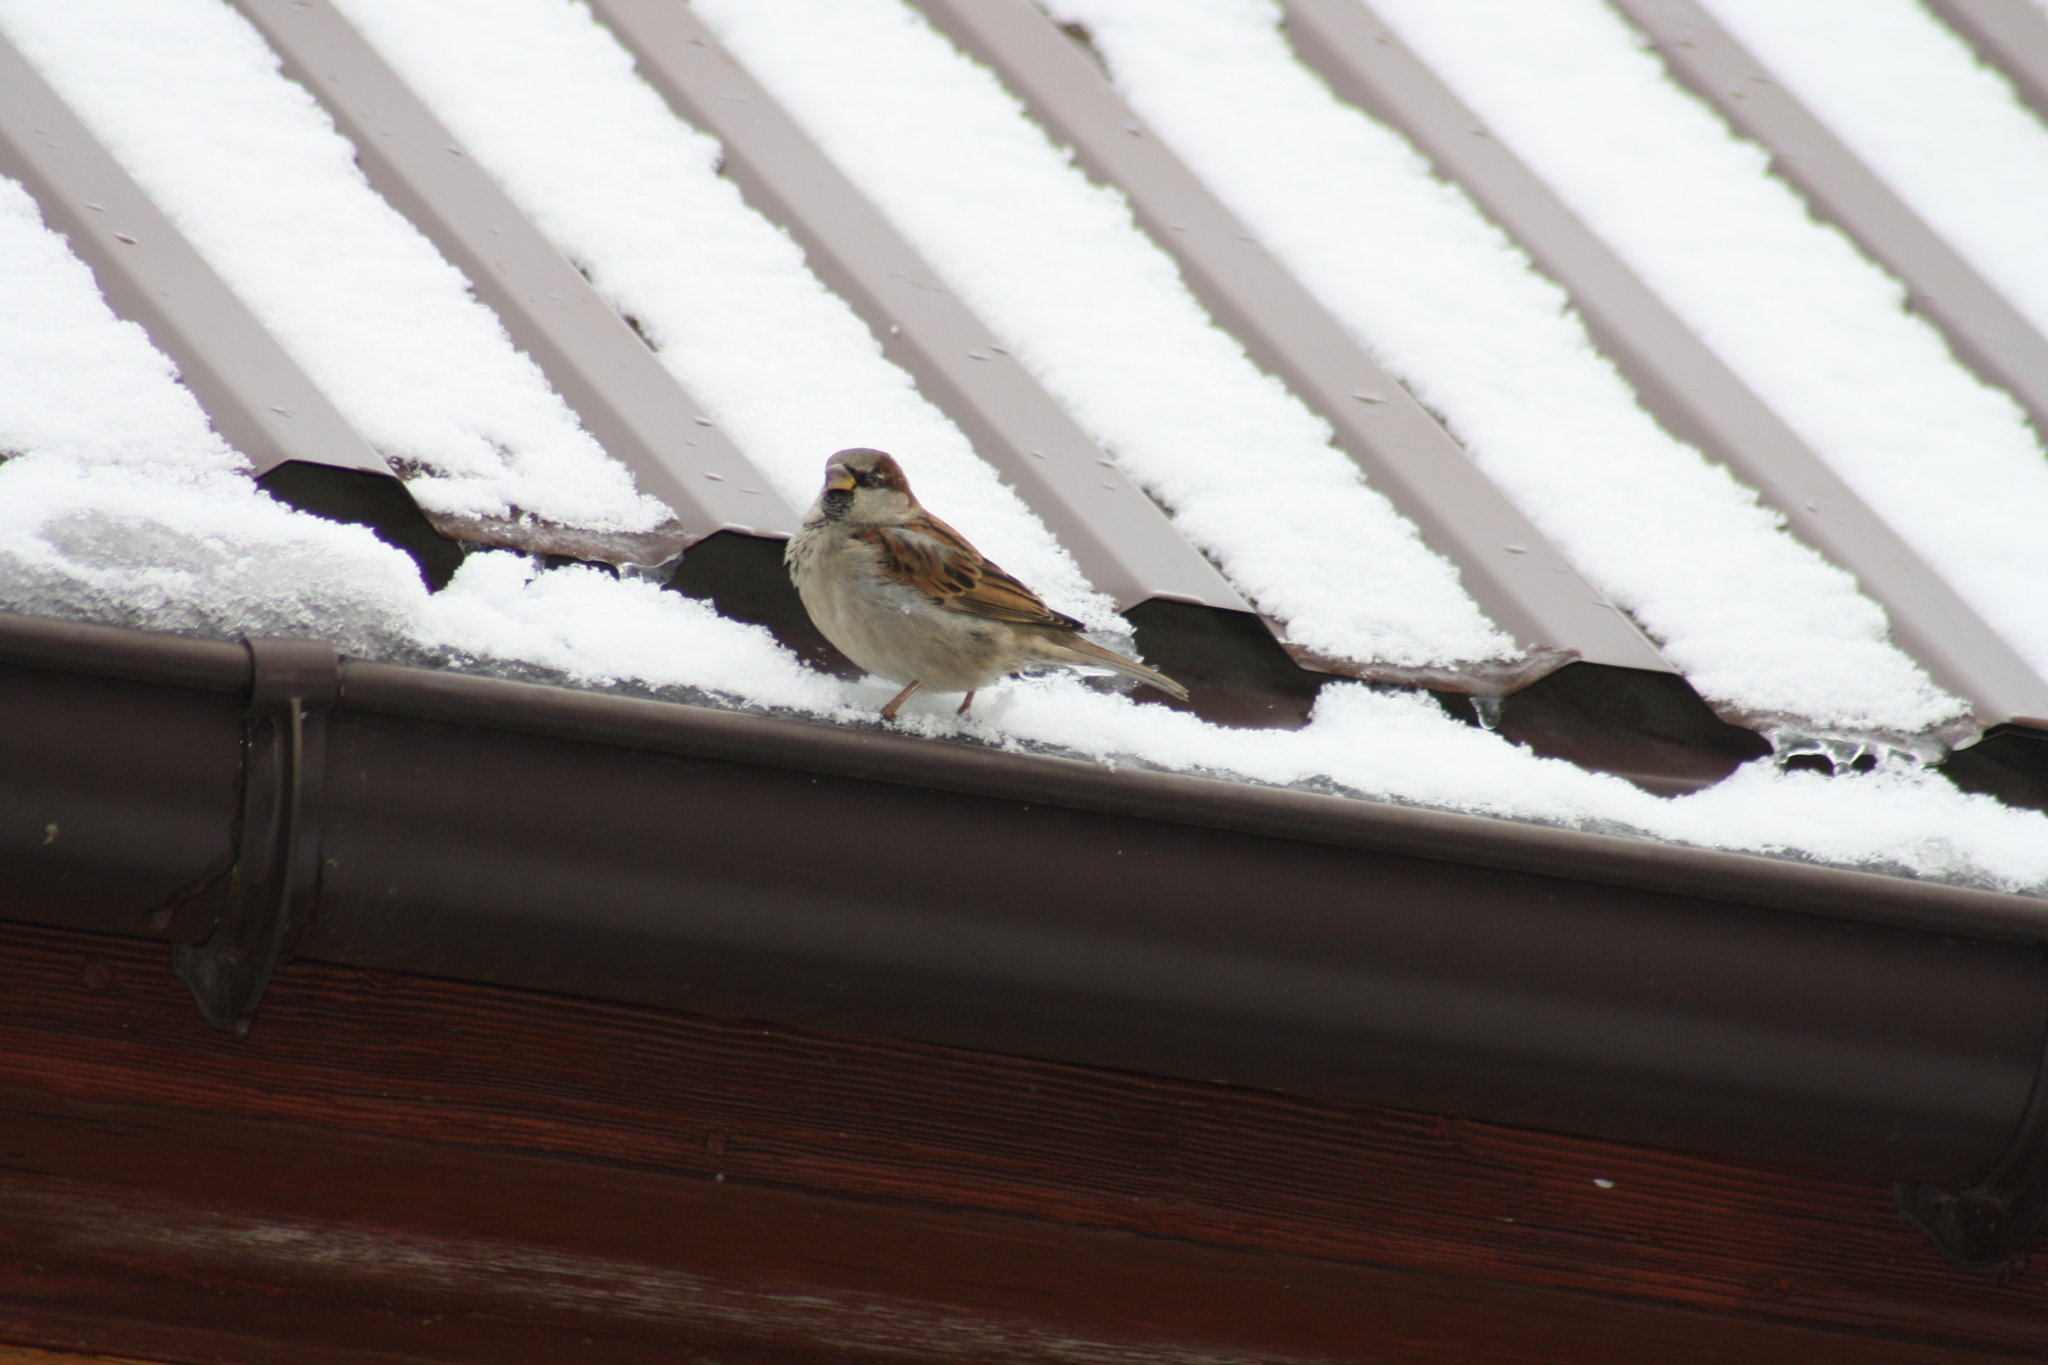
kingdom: Animalia
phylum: Chordata
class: Aves
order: Passeriformes
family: Passeridae
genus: Passer
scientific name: Passer domesticus
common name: House sparrow
